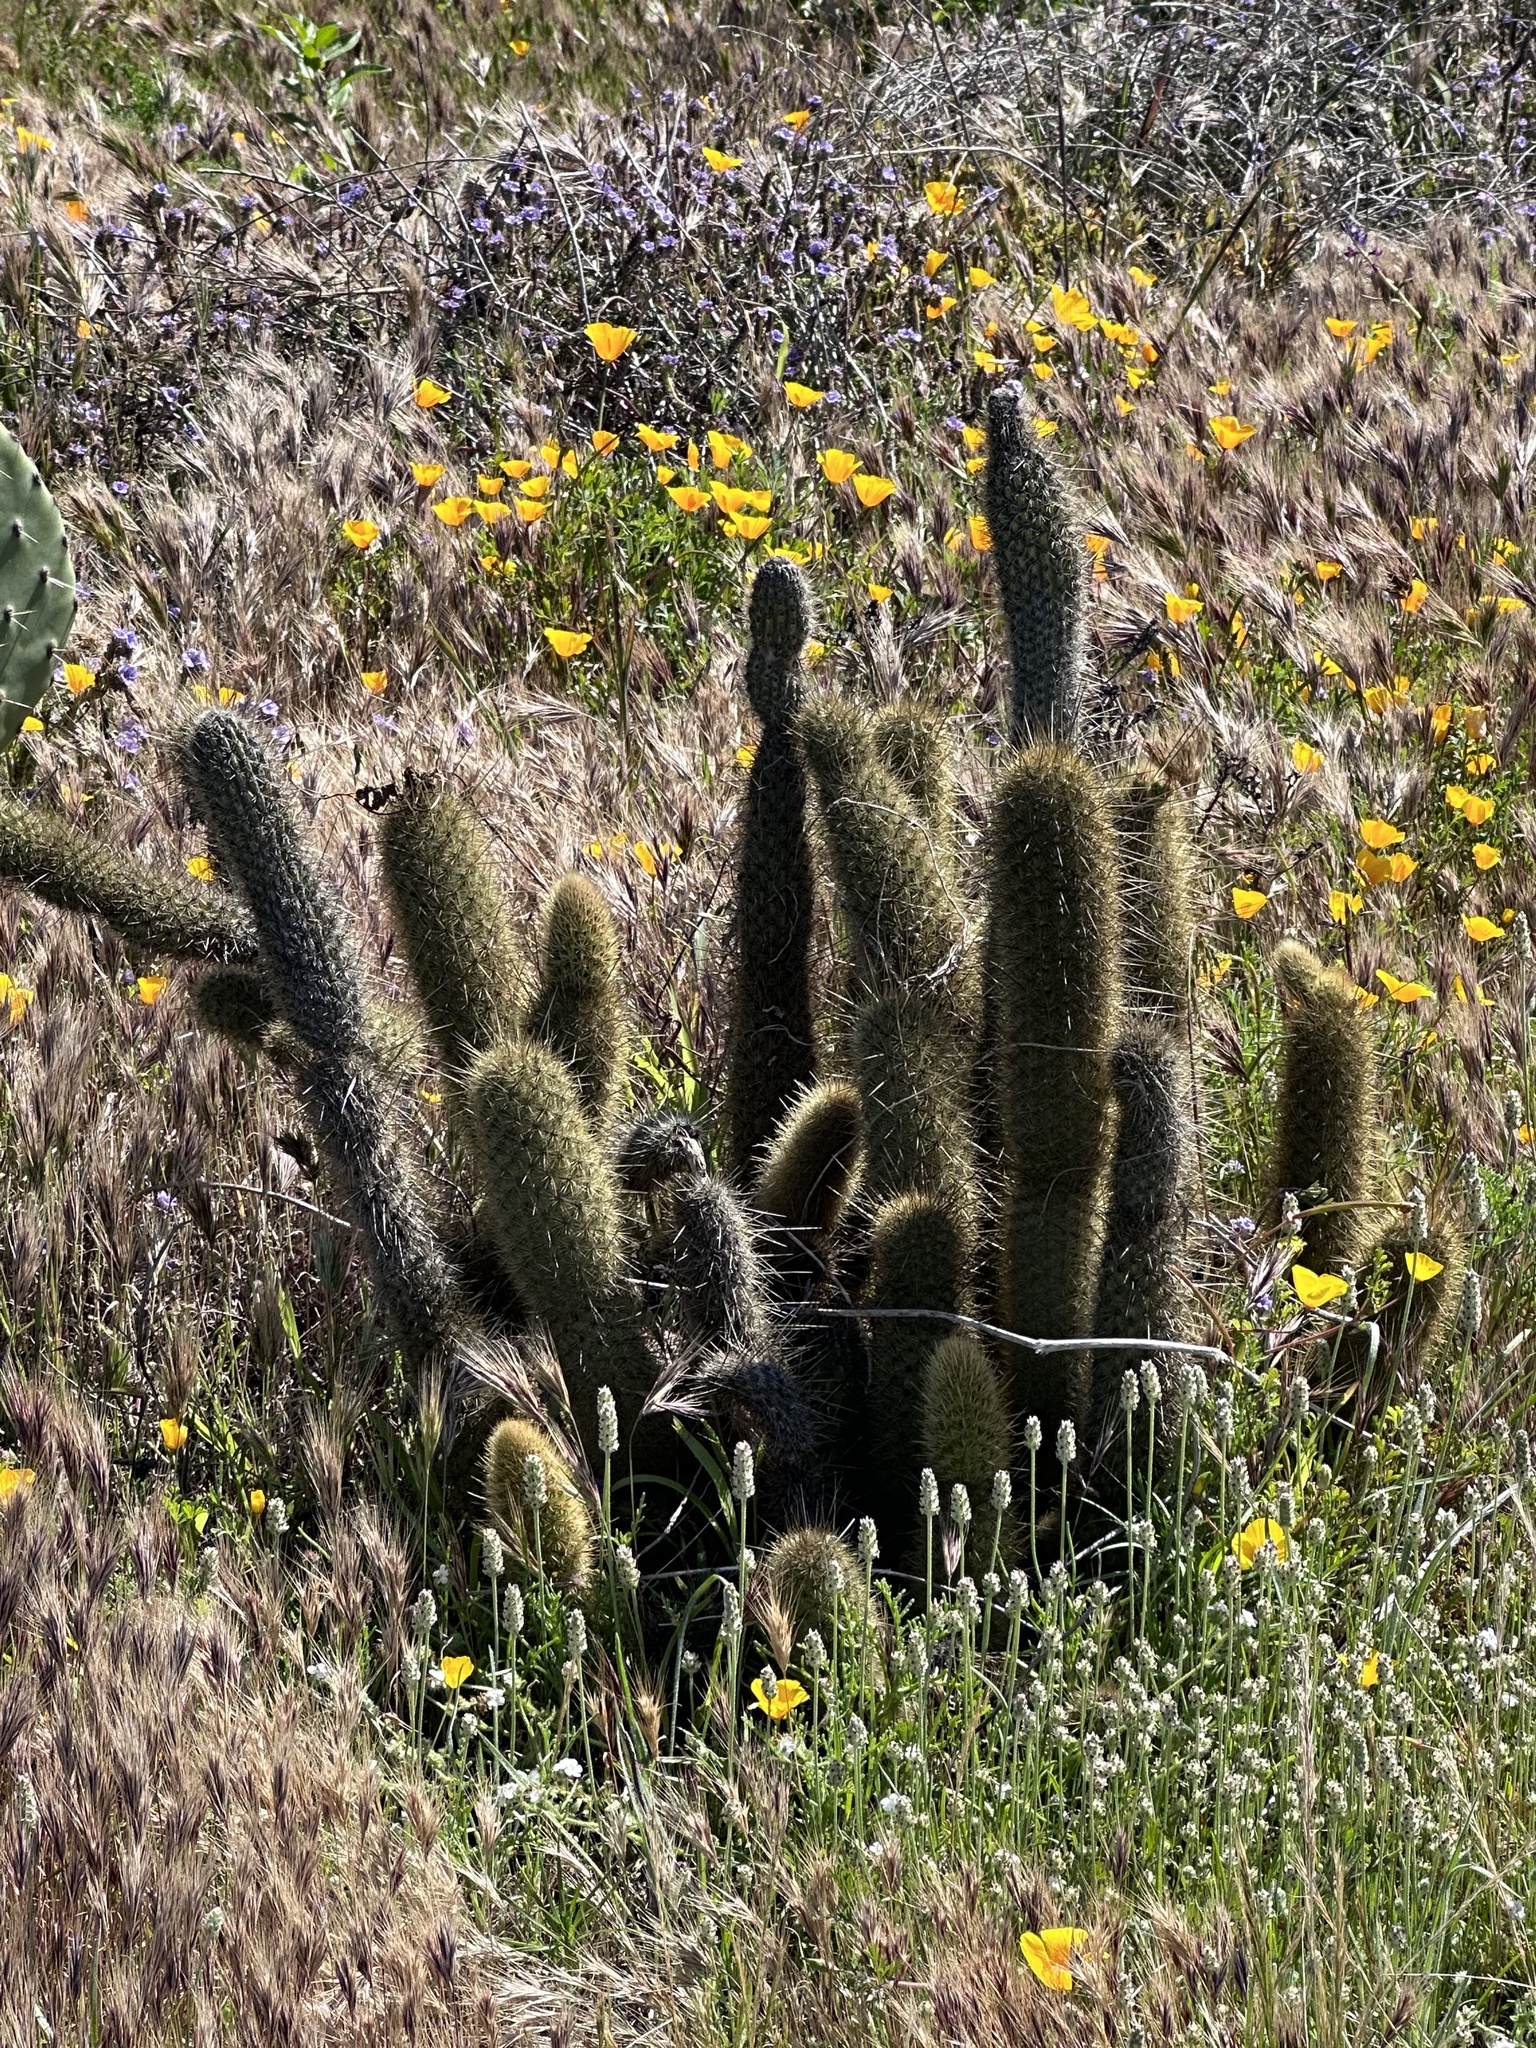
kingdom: Plantae
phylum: Tracheophyta
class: Magnoliopsida
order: Caryophyllales
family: Cactaceae
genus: Bergerocactus
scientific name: Bergerocactus emoryi
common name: Golden snakecactus
